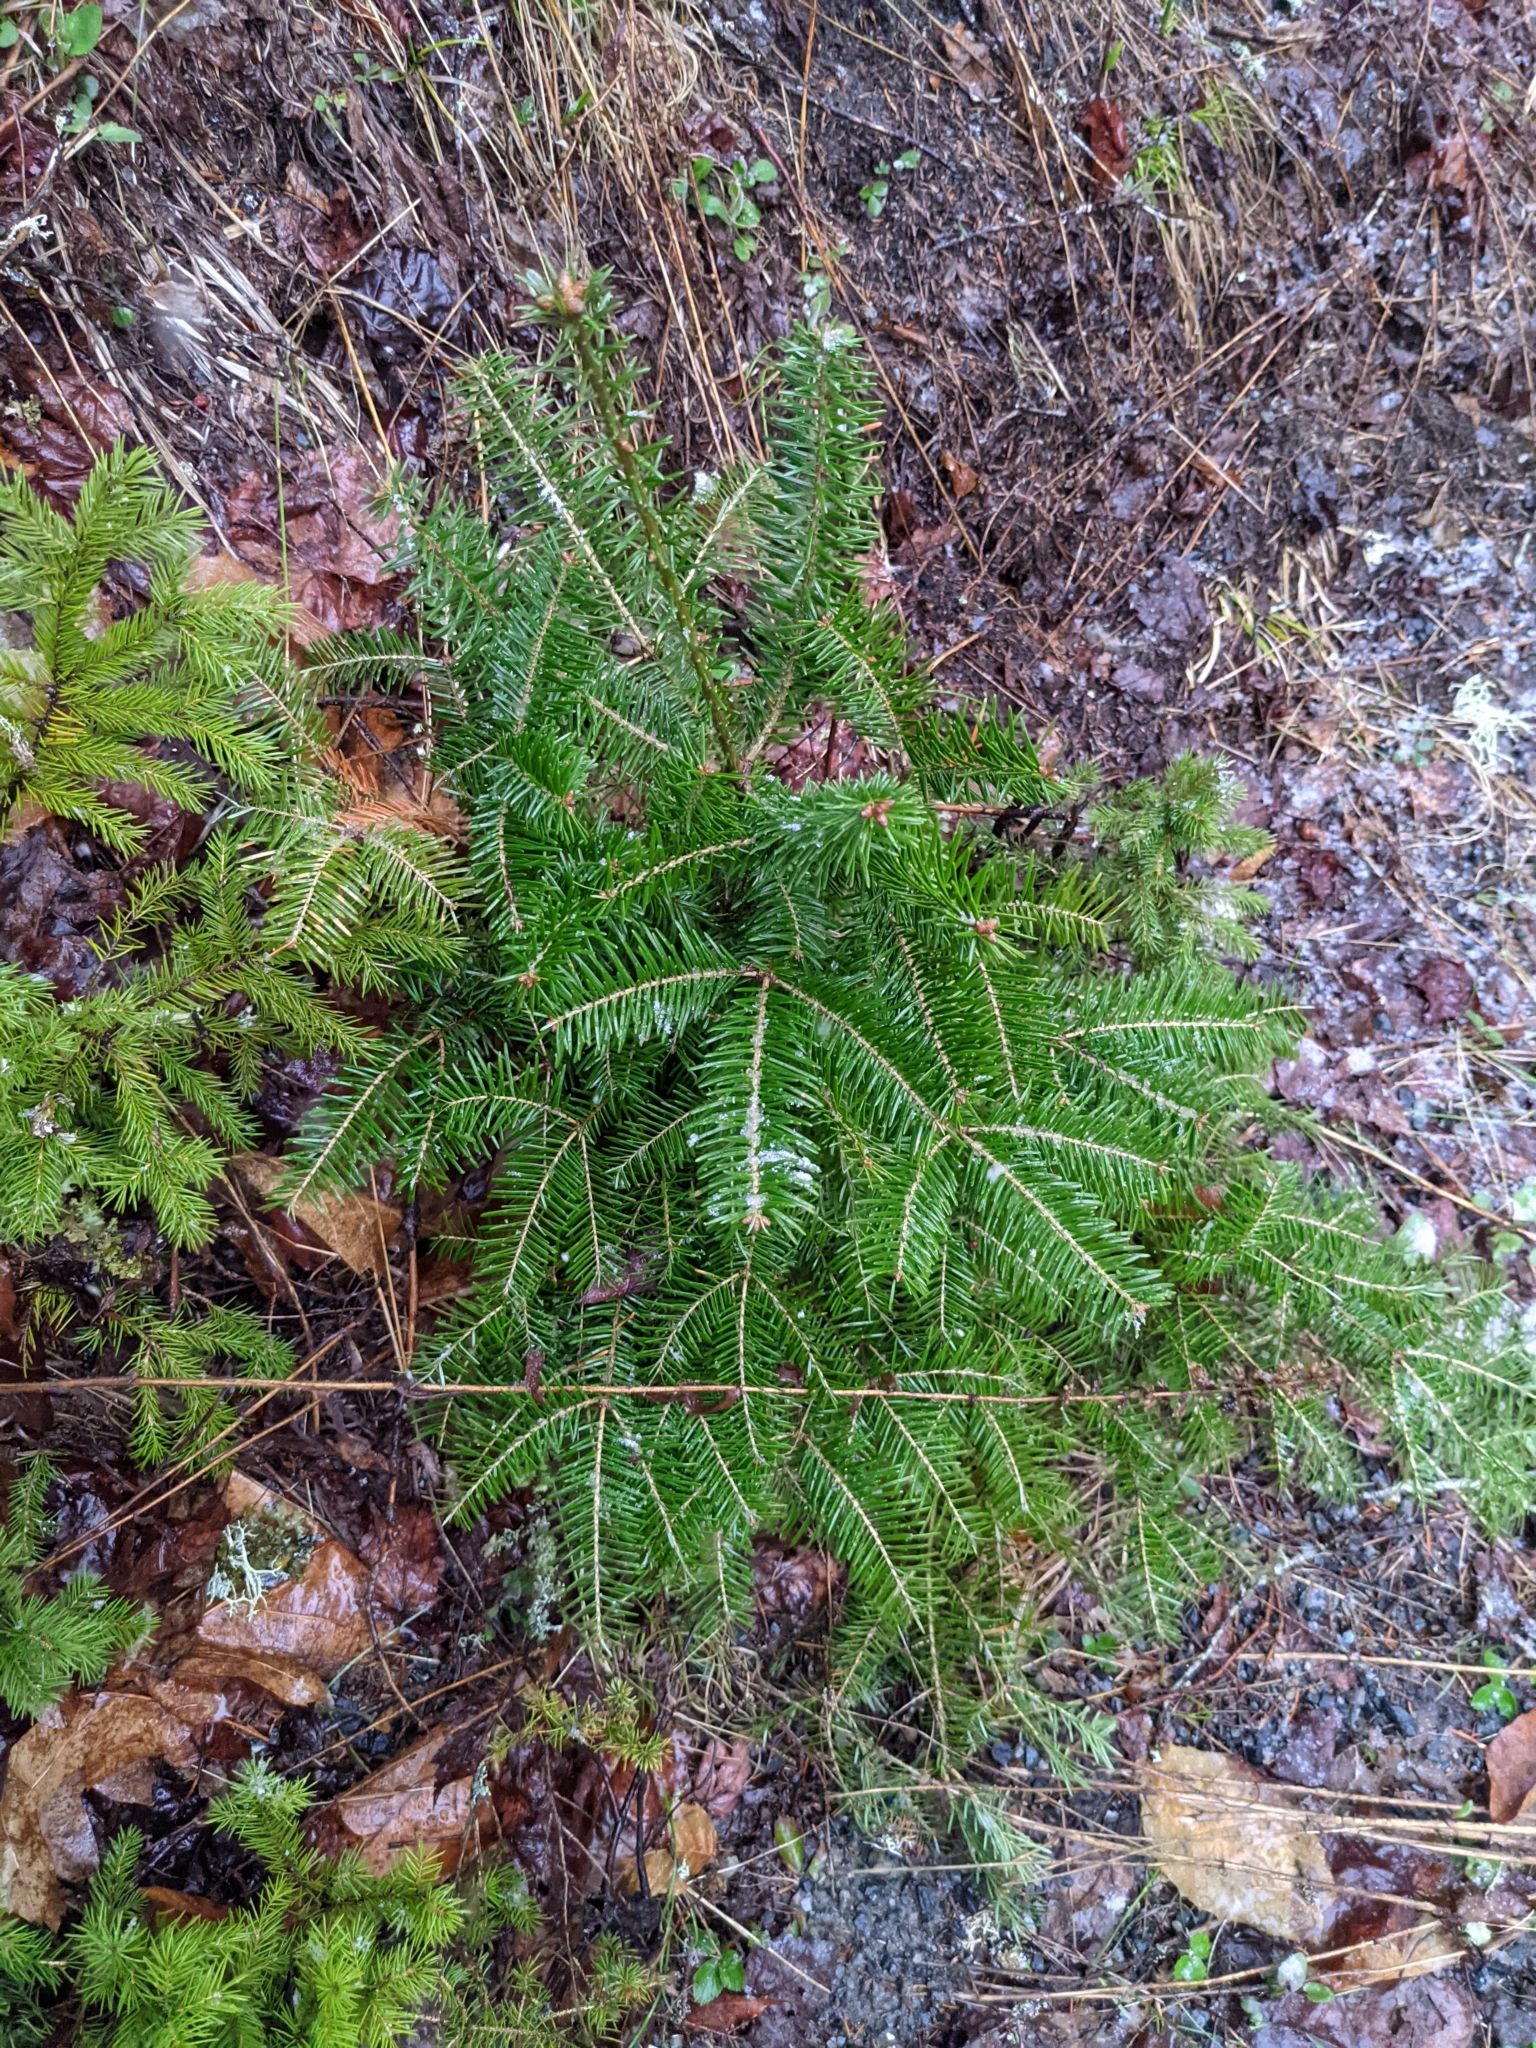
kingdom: Plantae
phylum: Tracheophyta
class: Pinopsida
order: Pinales
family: Pinaceae
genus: Abies
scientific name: Abies balsamea
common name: Balsam fir
